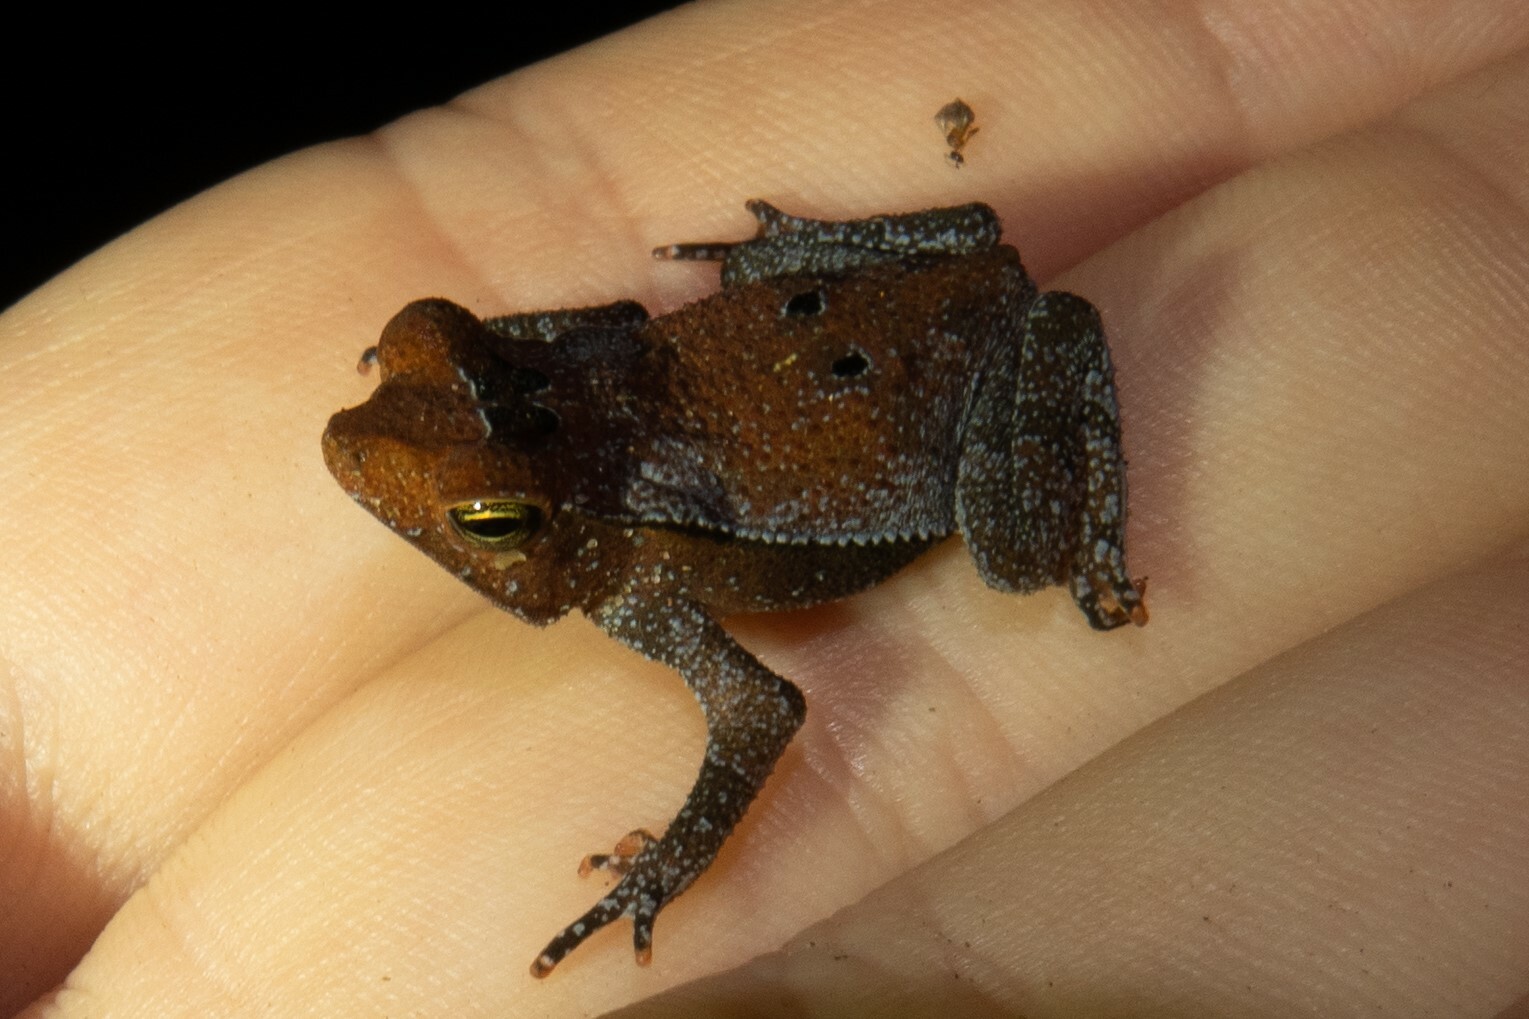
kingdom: Animalia
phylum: Chordata
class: Amphibia
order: Anura
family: Bufonidae
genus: Rhinella
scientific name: Rhinella margaritifera
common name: Mitred toad
